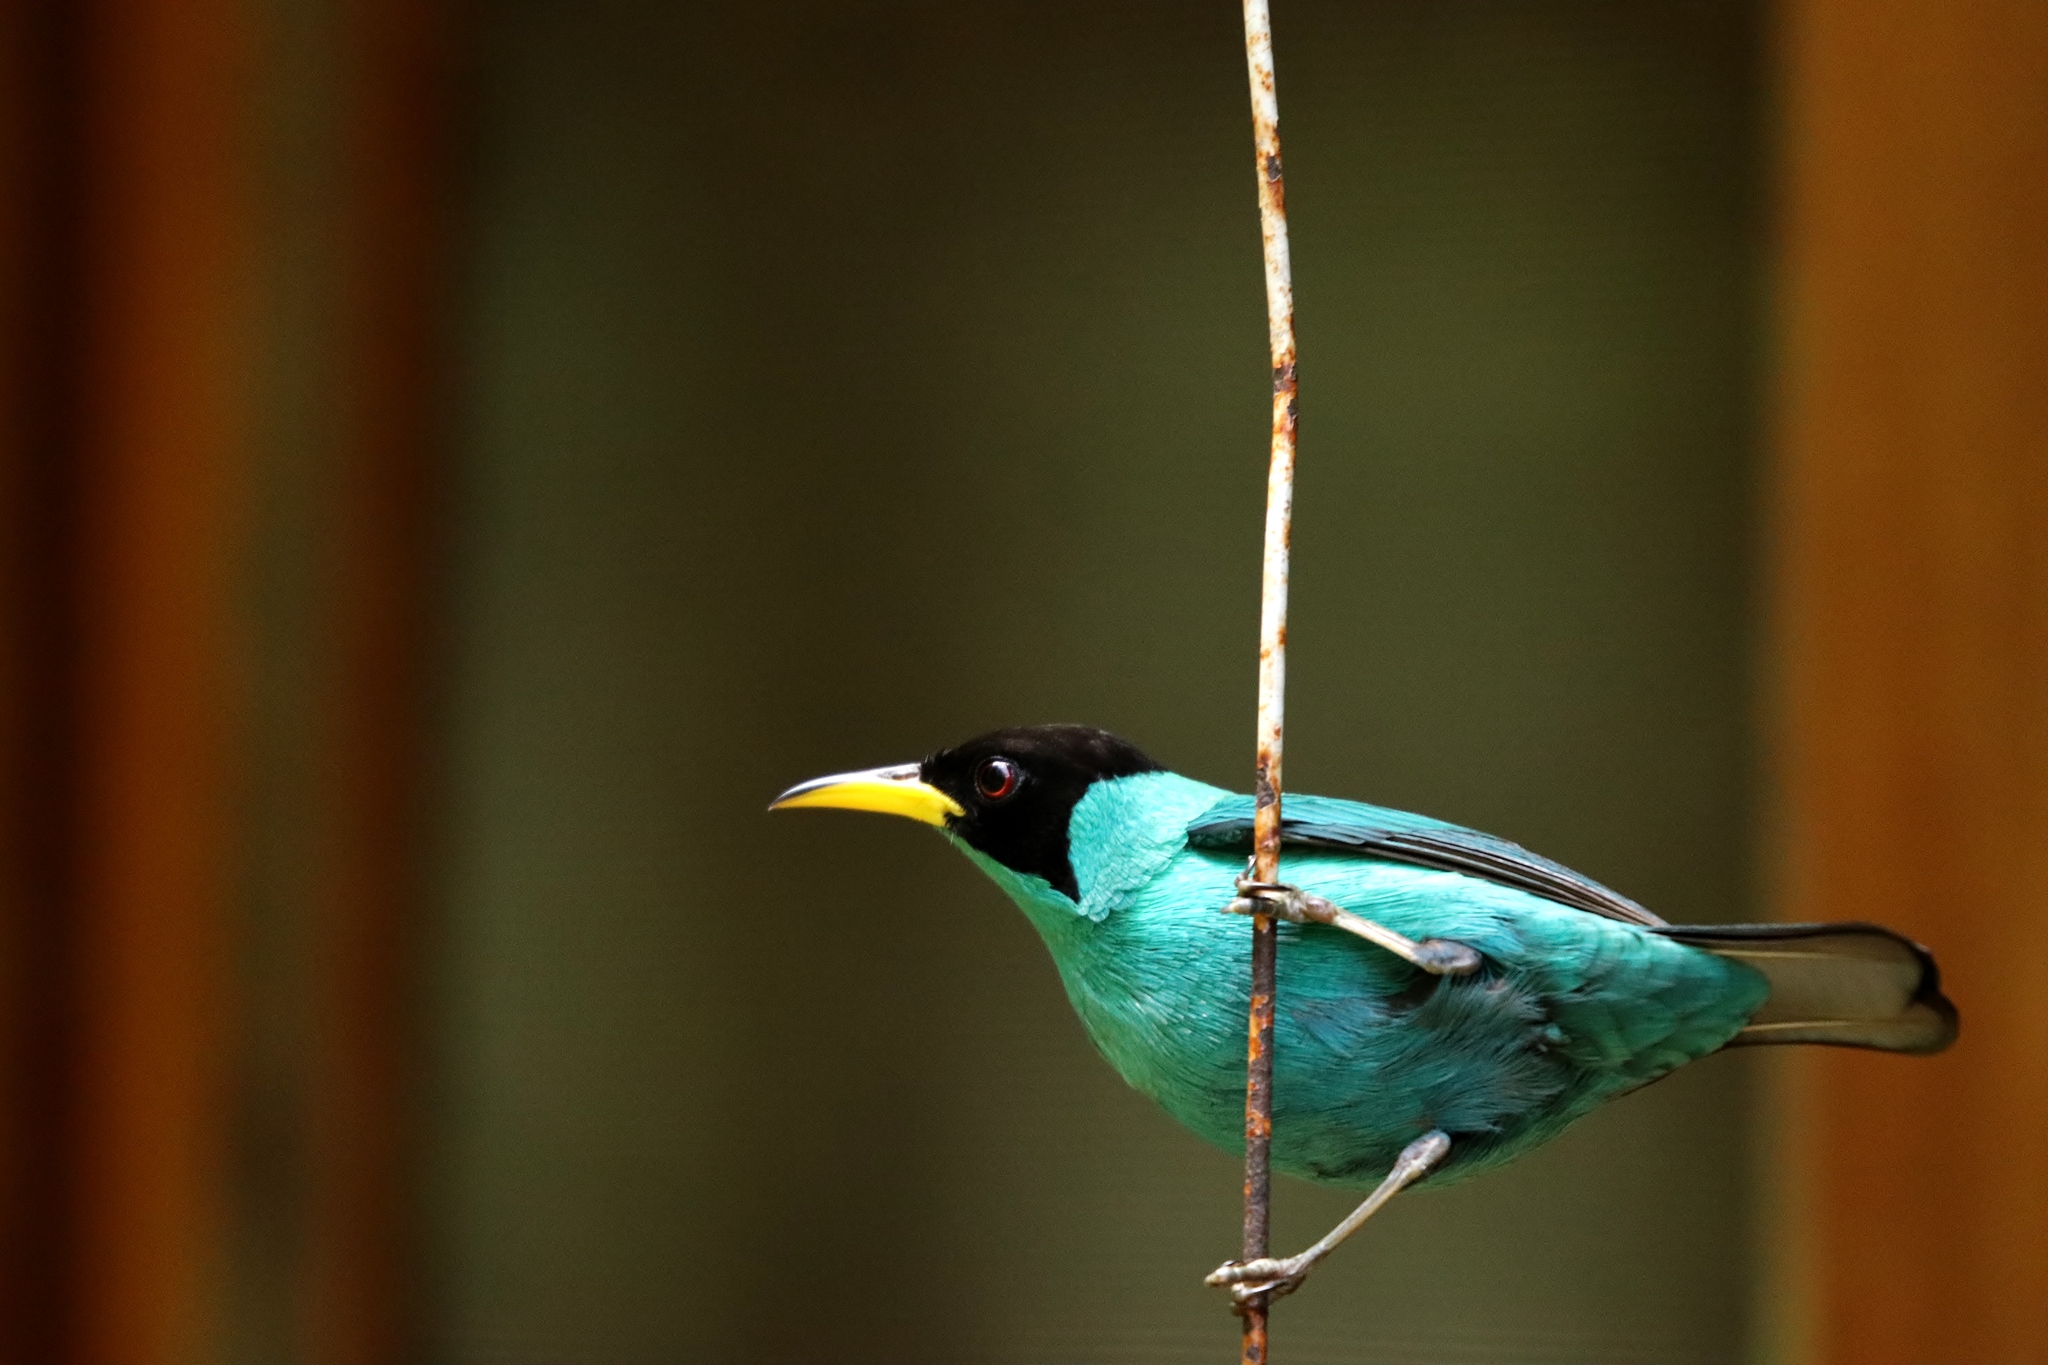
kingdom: Animalia
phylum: Chordata
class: Aves
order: Passeriformes
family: Thraupidae
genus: Chlorophanes
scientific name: Chlorophanes spiza
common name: Green honeycreeper
